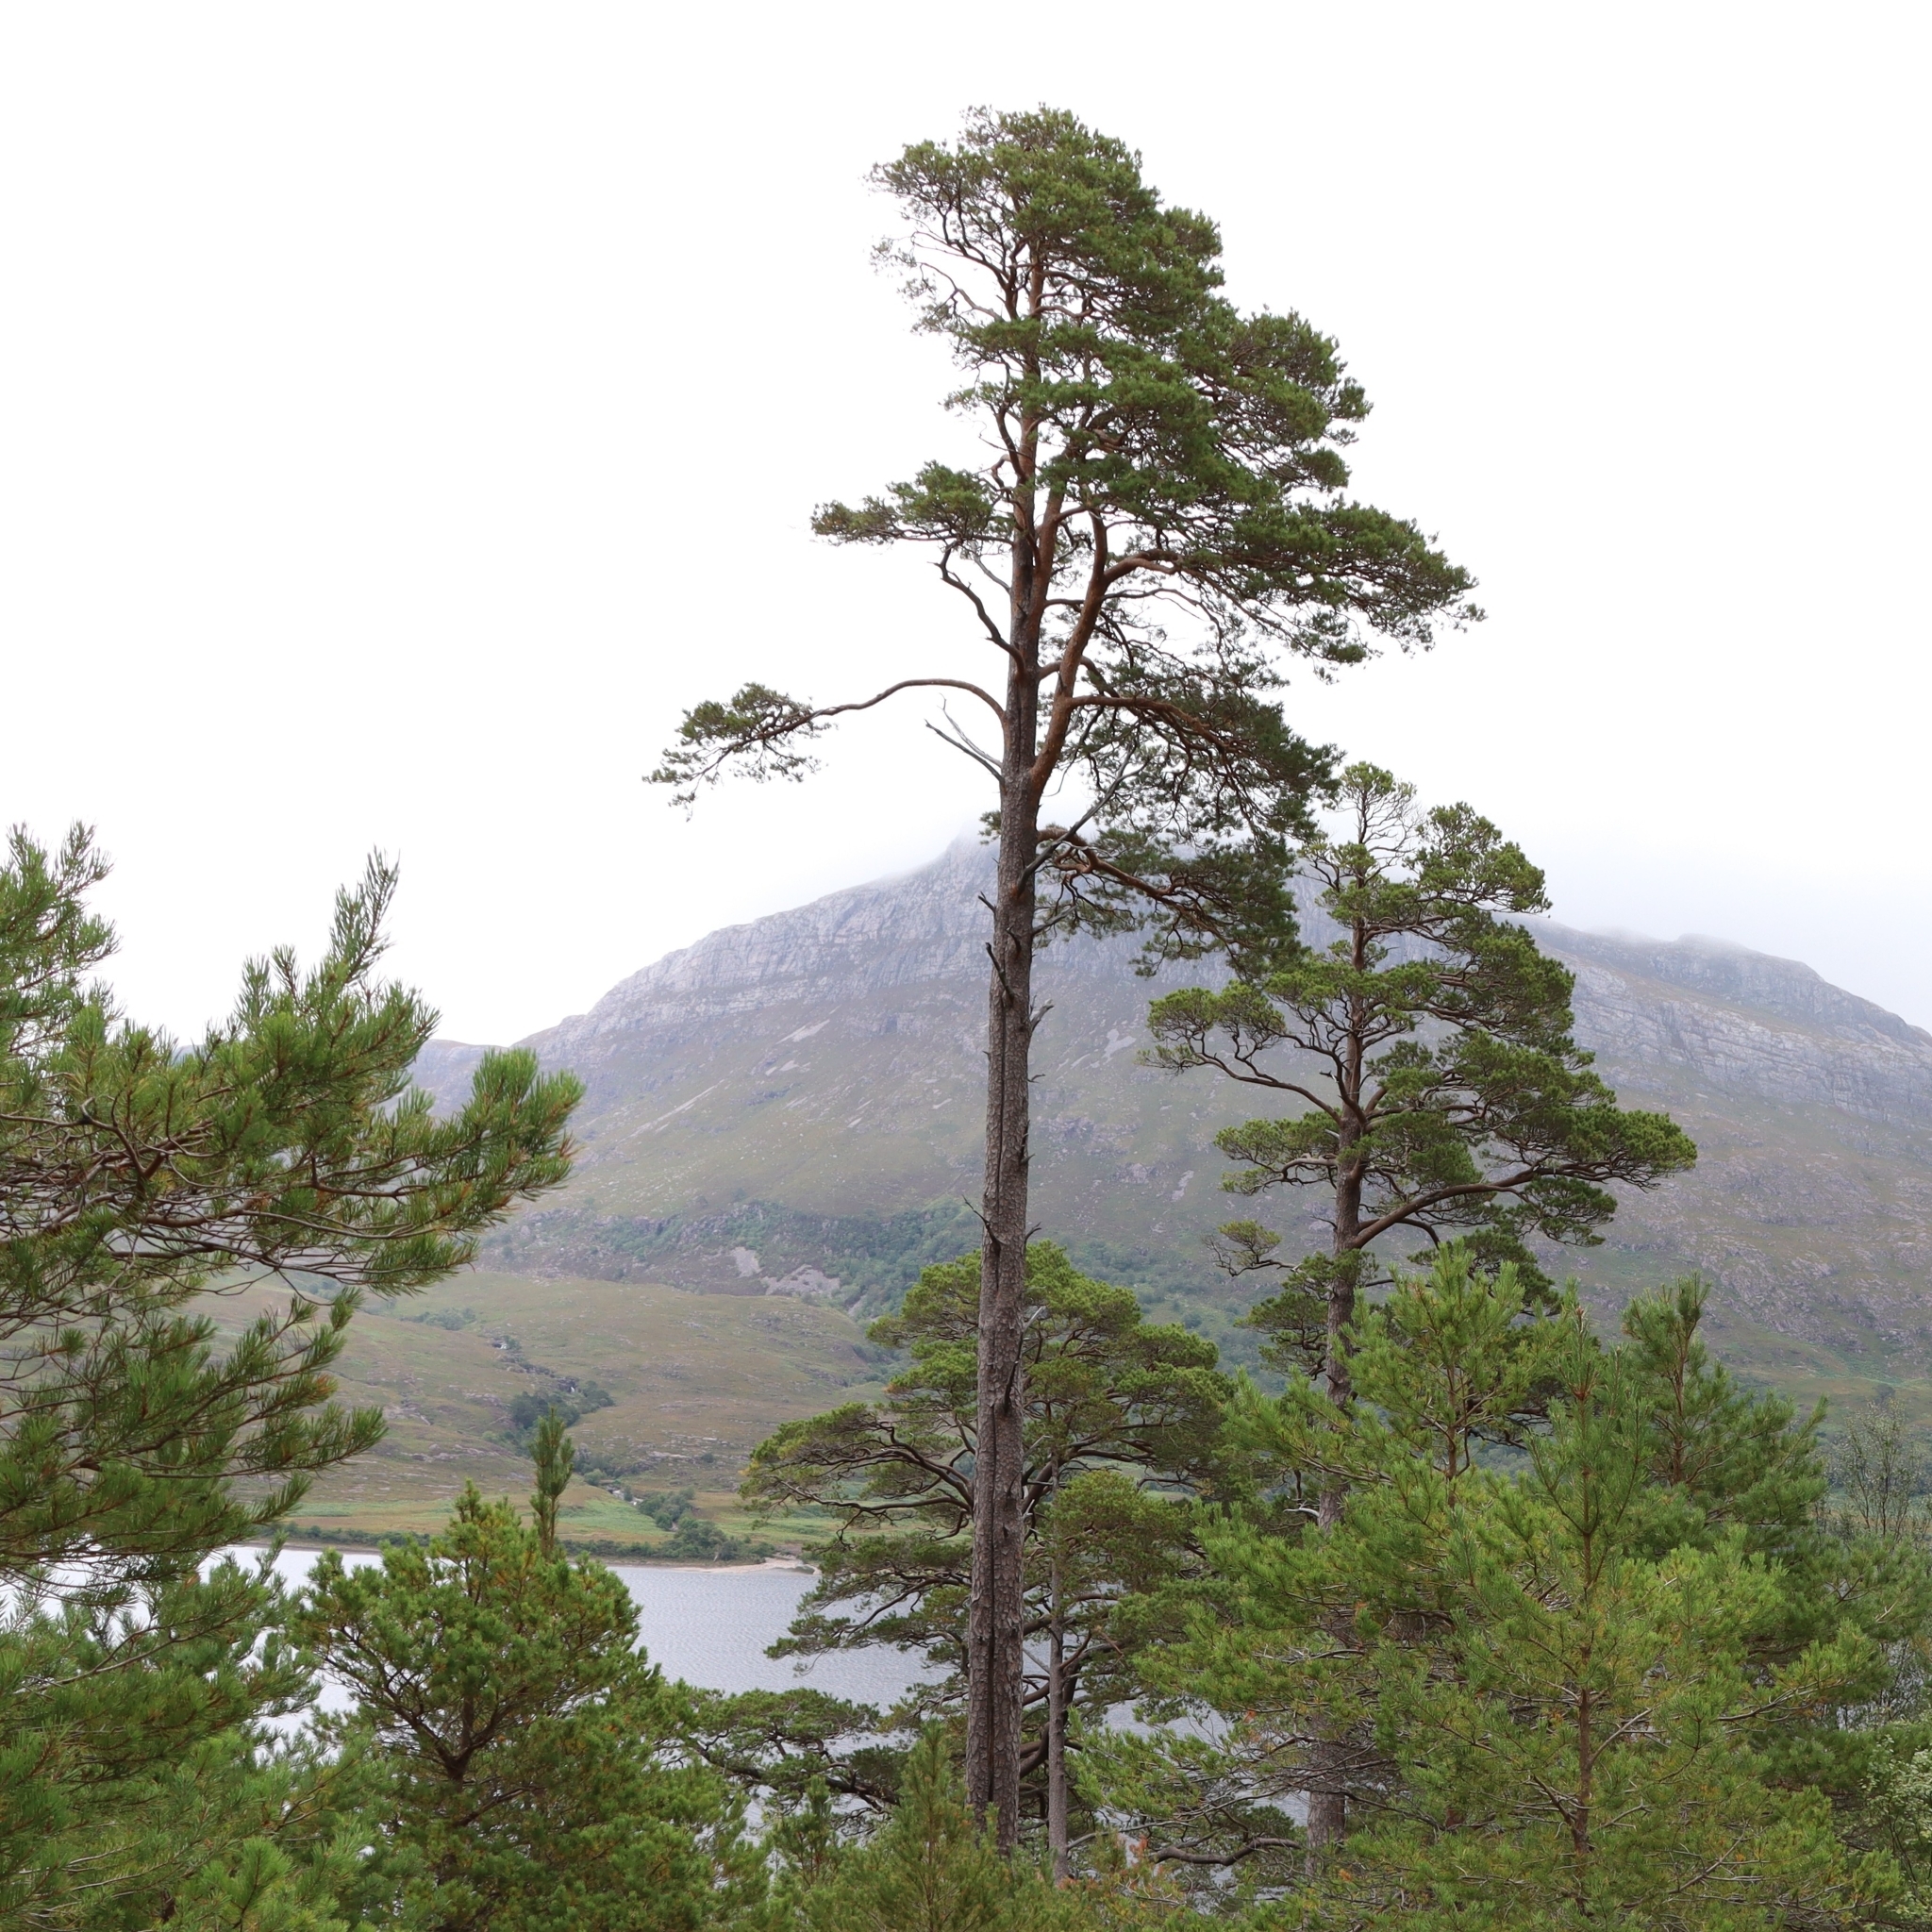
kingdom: Plantae
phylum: Tracheophyta
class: Pinopsida
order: Pinales
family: Pinaceae
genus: Pinus
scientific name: Pinus sylvestris
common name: Scots pine
